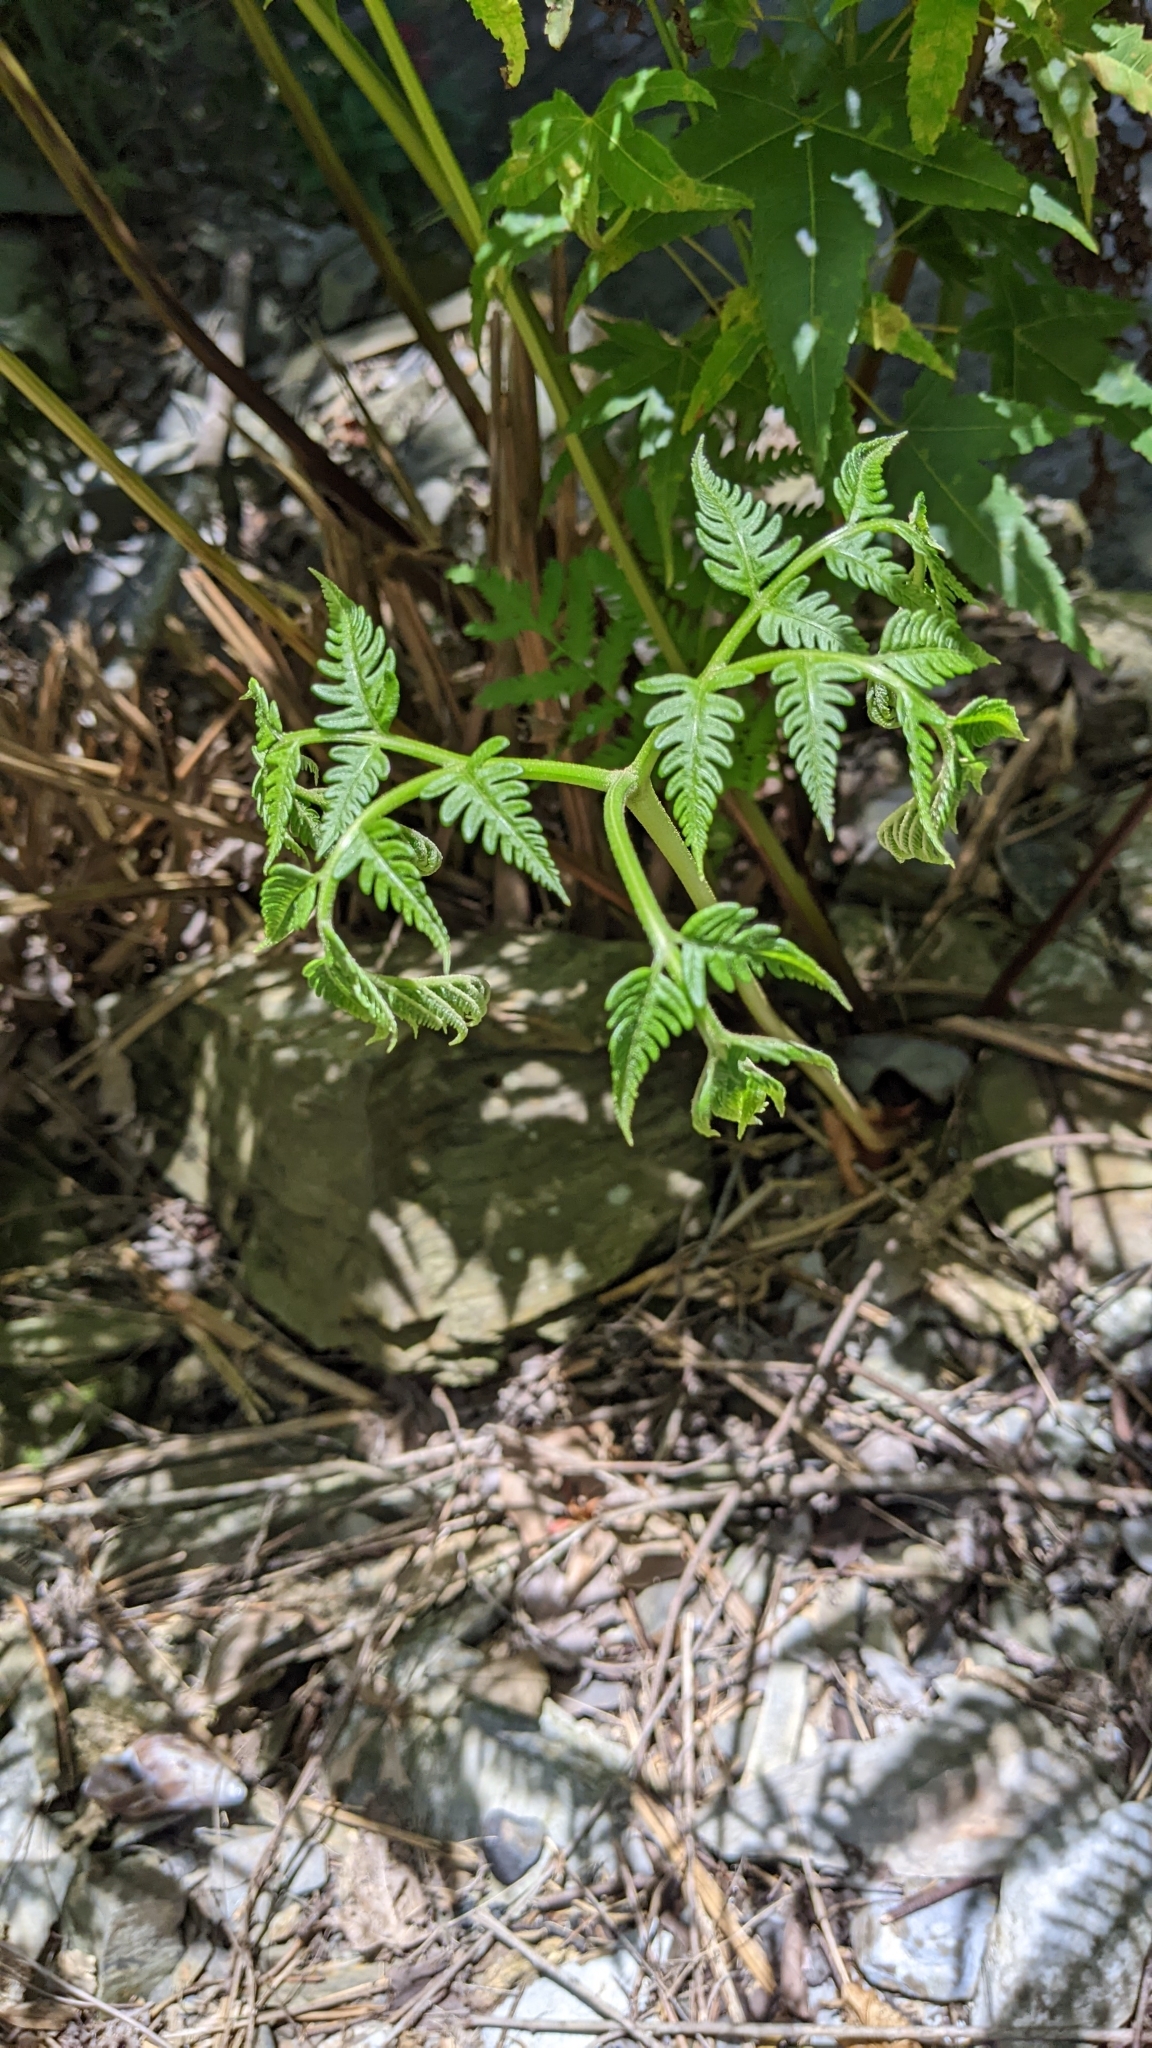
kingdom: Plantae
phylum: Tracheophyta
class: Polypodiopsida
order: Polypodiales
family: Pteridaceae
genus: Pteris
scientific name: Pteris wallichiana
